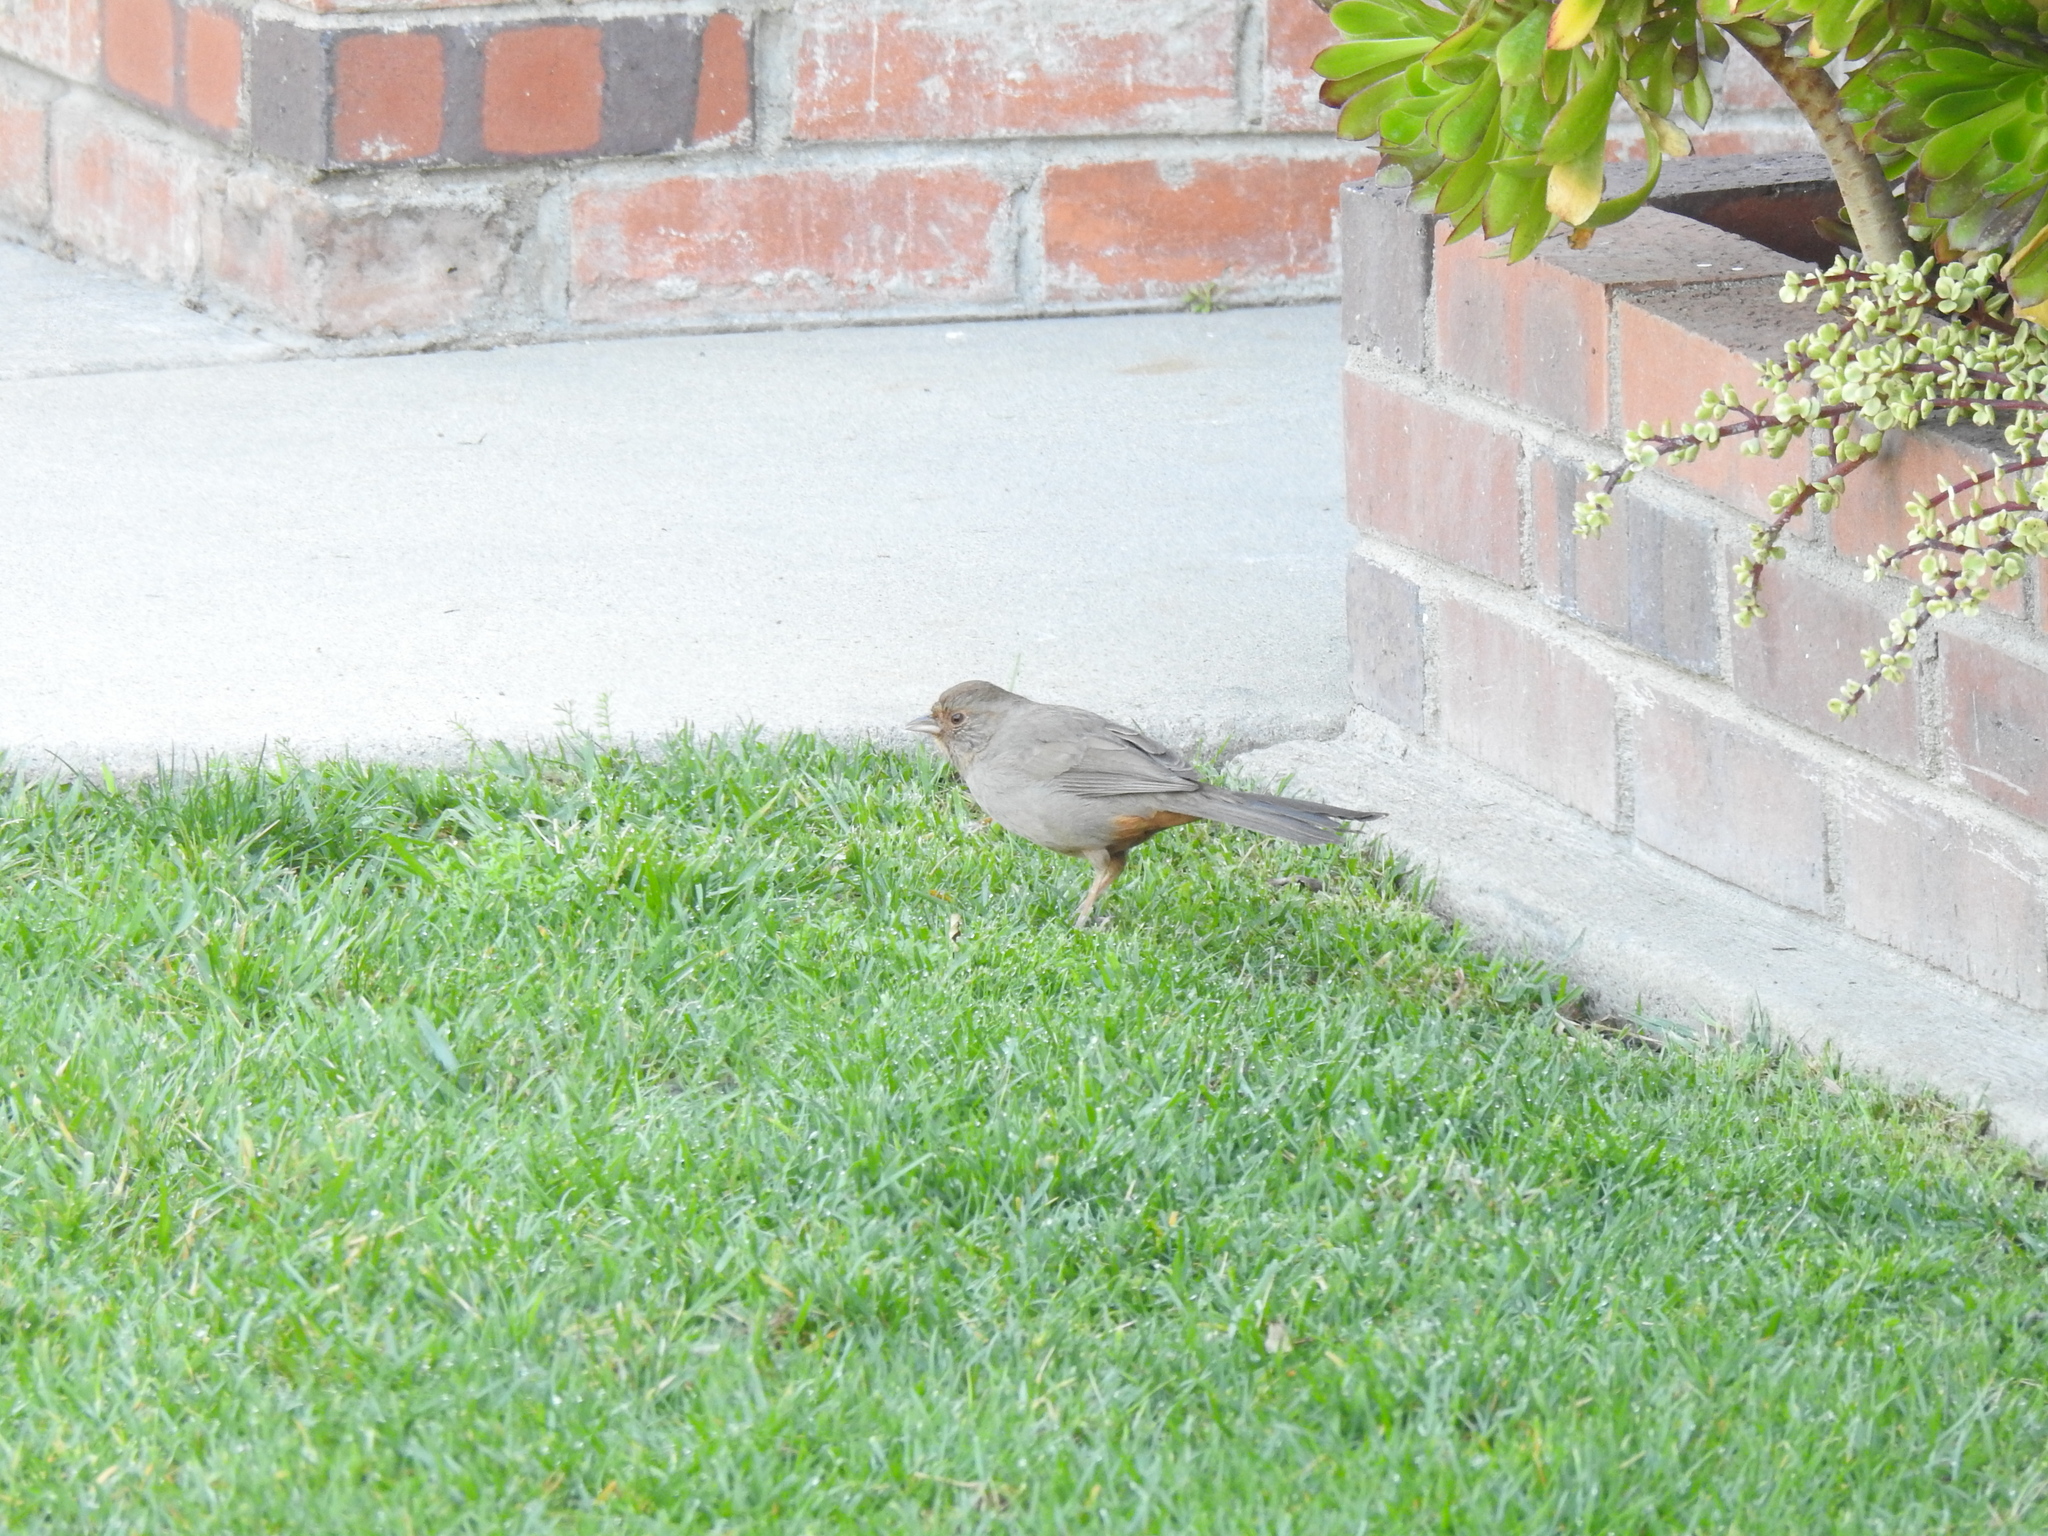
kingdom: Animalia
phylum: Chordata
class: Aves
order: Passeriformes
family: Passerellidae
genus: Melozone
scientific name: Melozone crissalis
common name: California towhee
